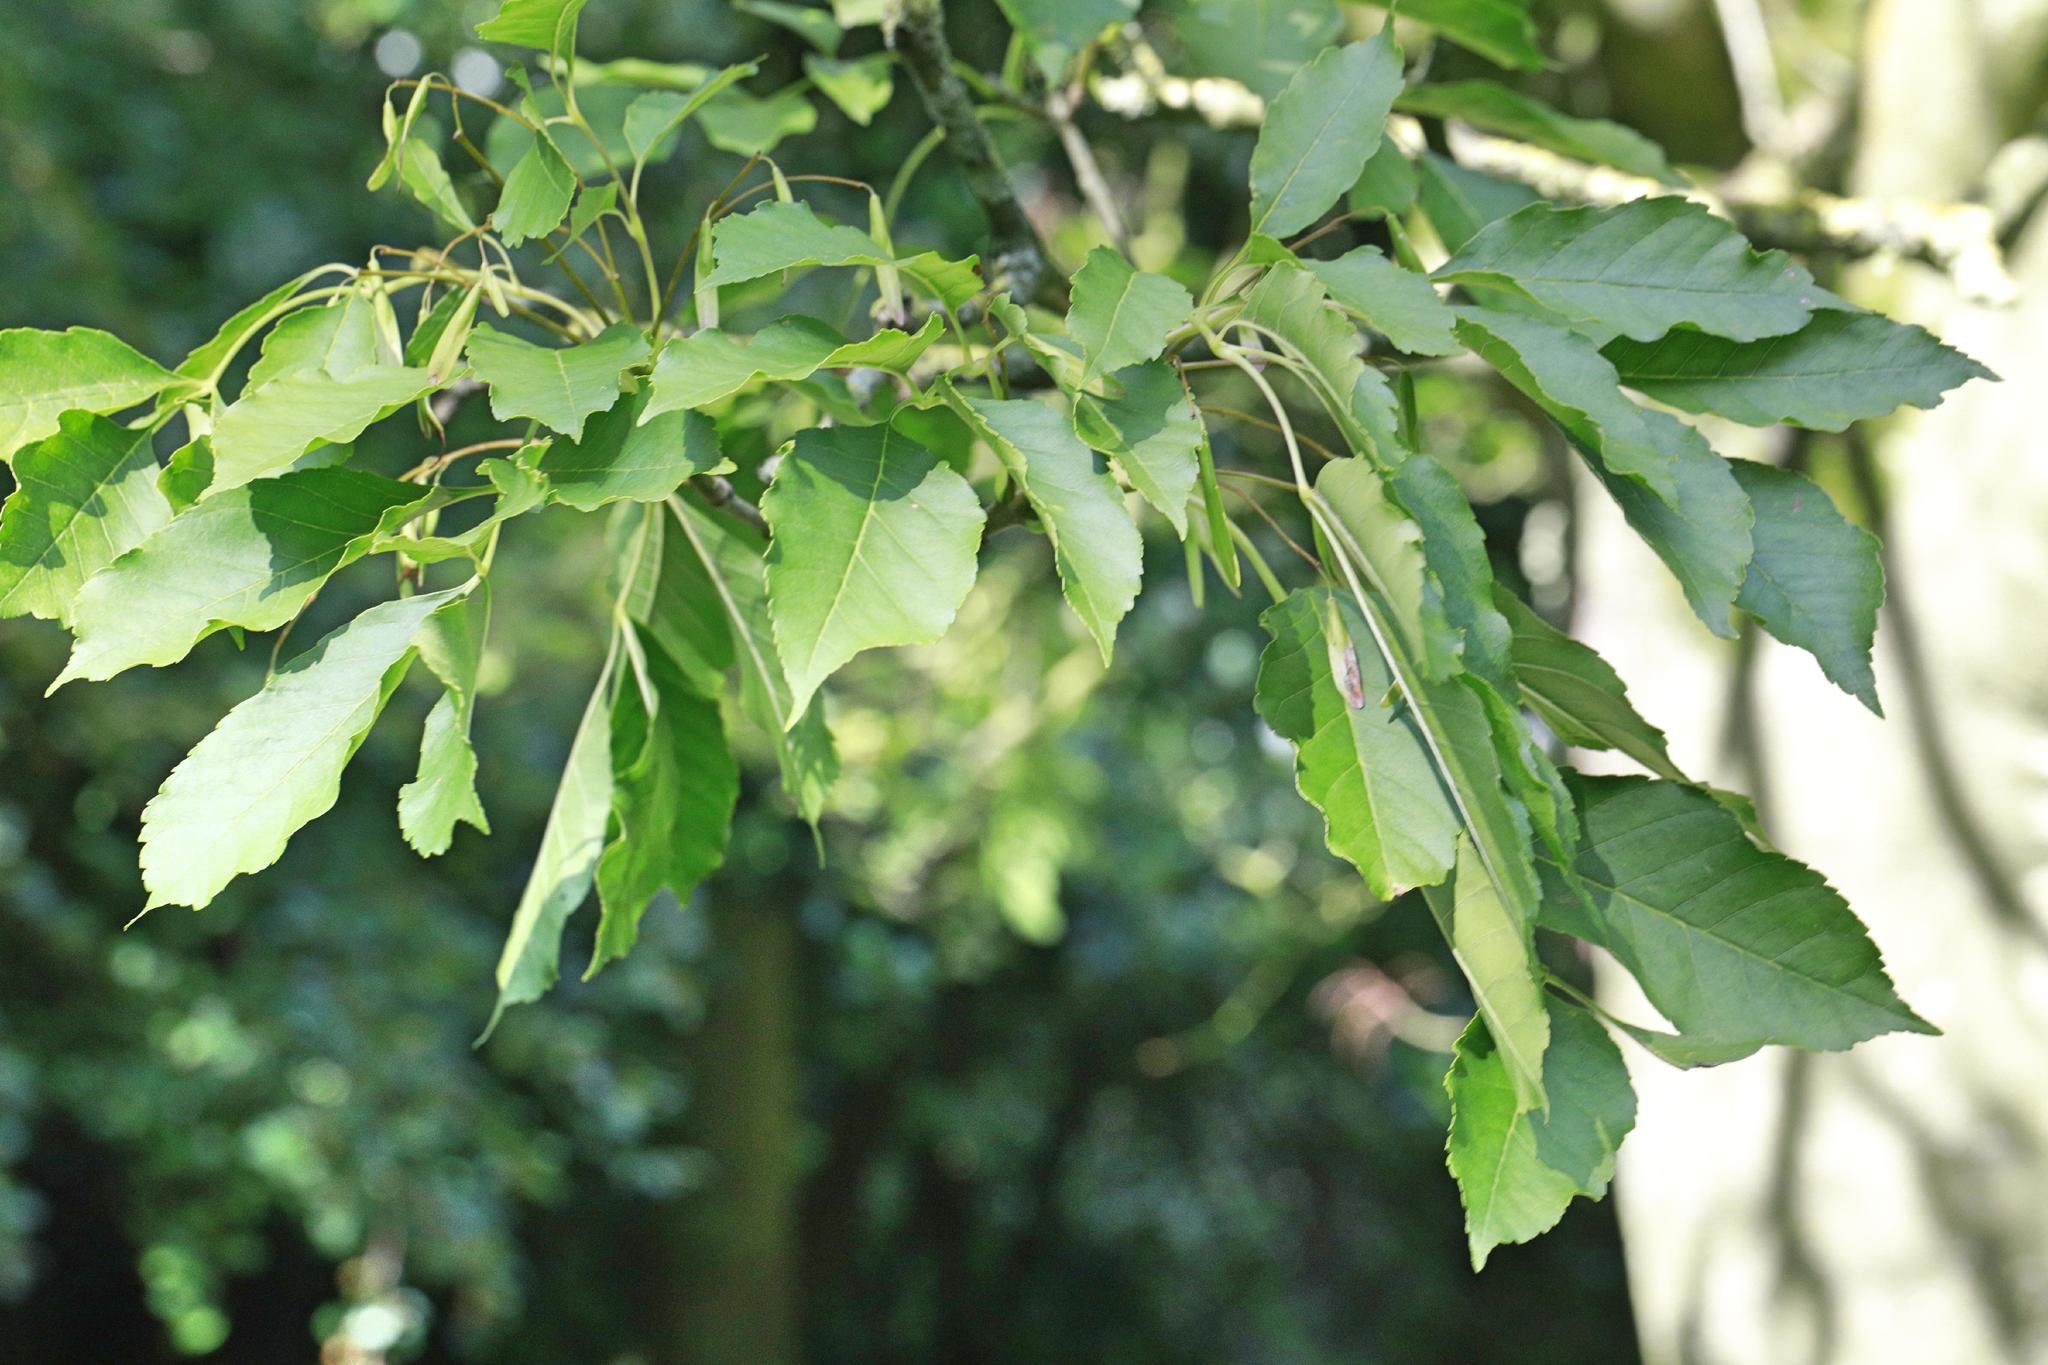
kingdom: Plantae
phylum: Tracheophyta
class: Magnoliopsida
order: Lamiales
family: Oleaceae
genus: Fraxinus
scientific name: Fraxinus excelsior
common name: European ash
